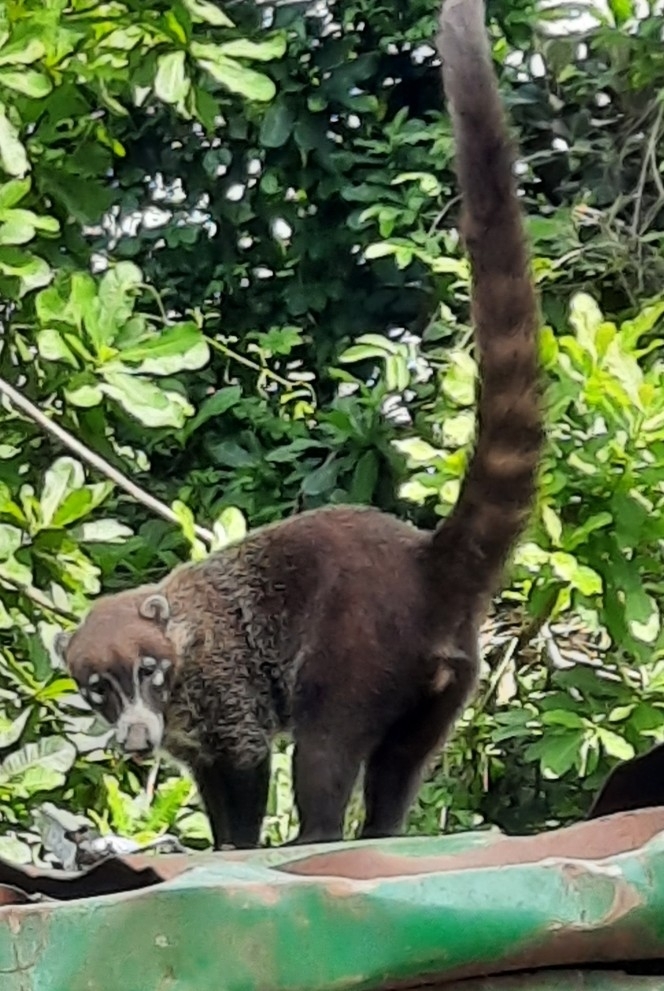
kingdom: Animalia
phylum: Chordata
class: Mammalia
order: Carnivora
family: Procyonidae
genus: Nasua
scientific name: Nasua narica
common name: White-nosed coati
